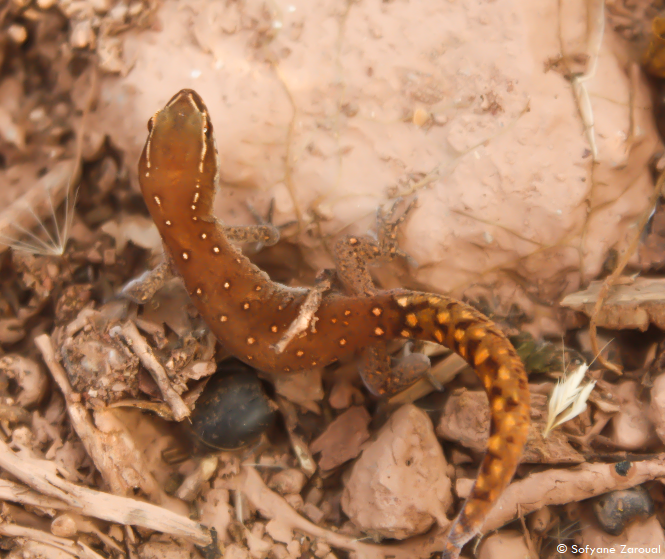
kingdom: Animalia
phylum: Chordata
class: Squamata
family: Sphaerodactylidae
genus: Saurodactylus
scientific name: Saurodactylus brosseti
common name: Morocco lizard-fingered gecko
